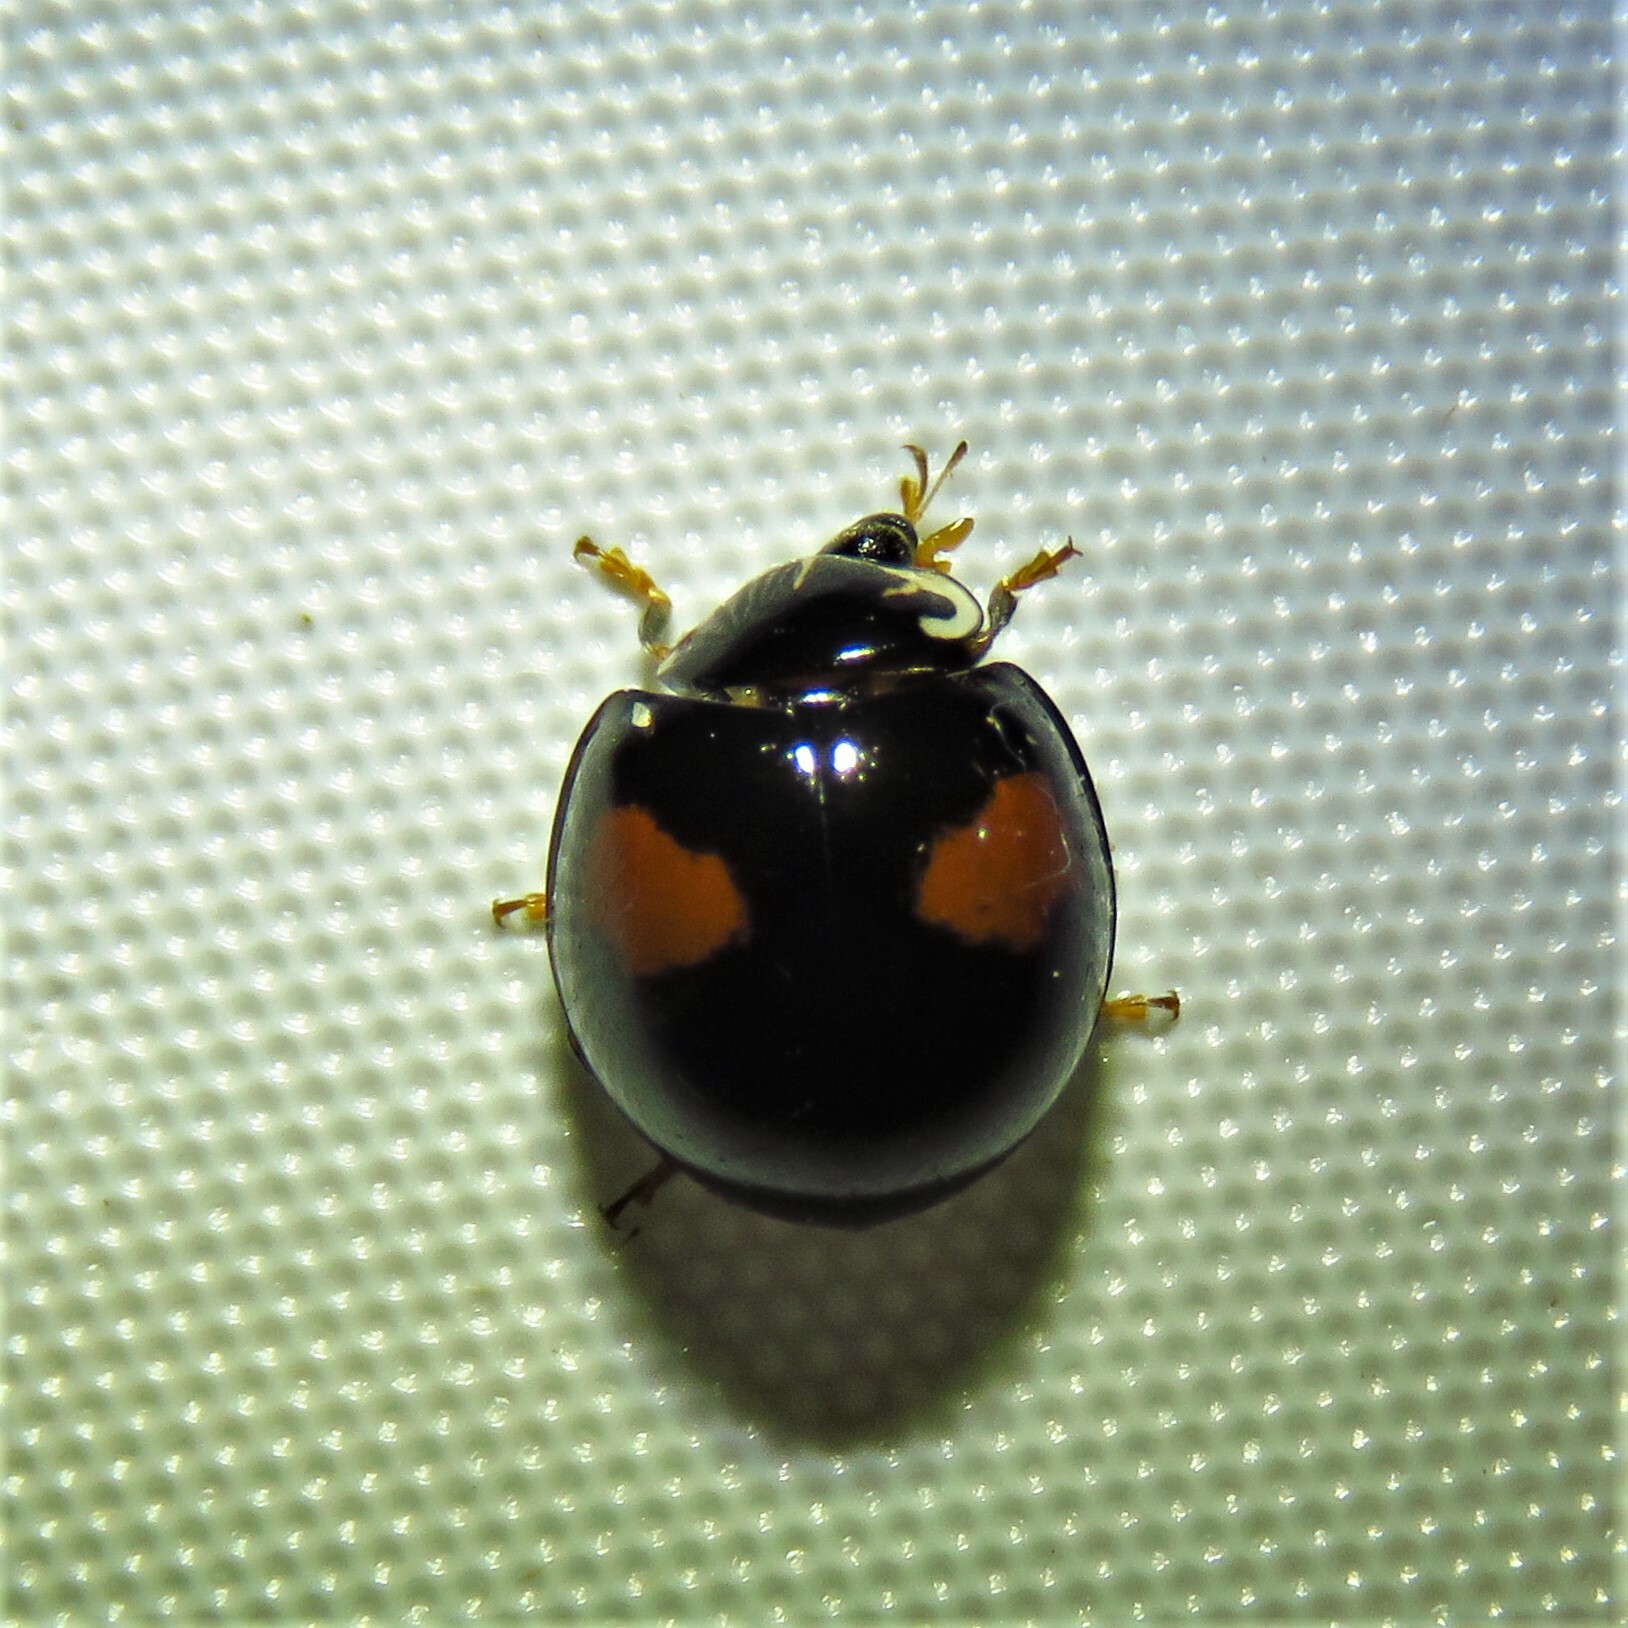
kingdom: Animalia
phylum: Arthropoda
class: Insecta
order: Coleoptera
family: Coccinellidae
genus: Olla
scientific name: Olla v-nigrum
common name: Ashy gray lady beetle
